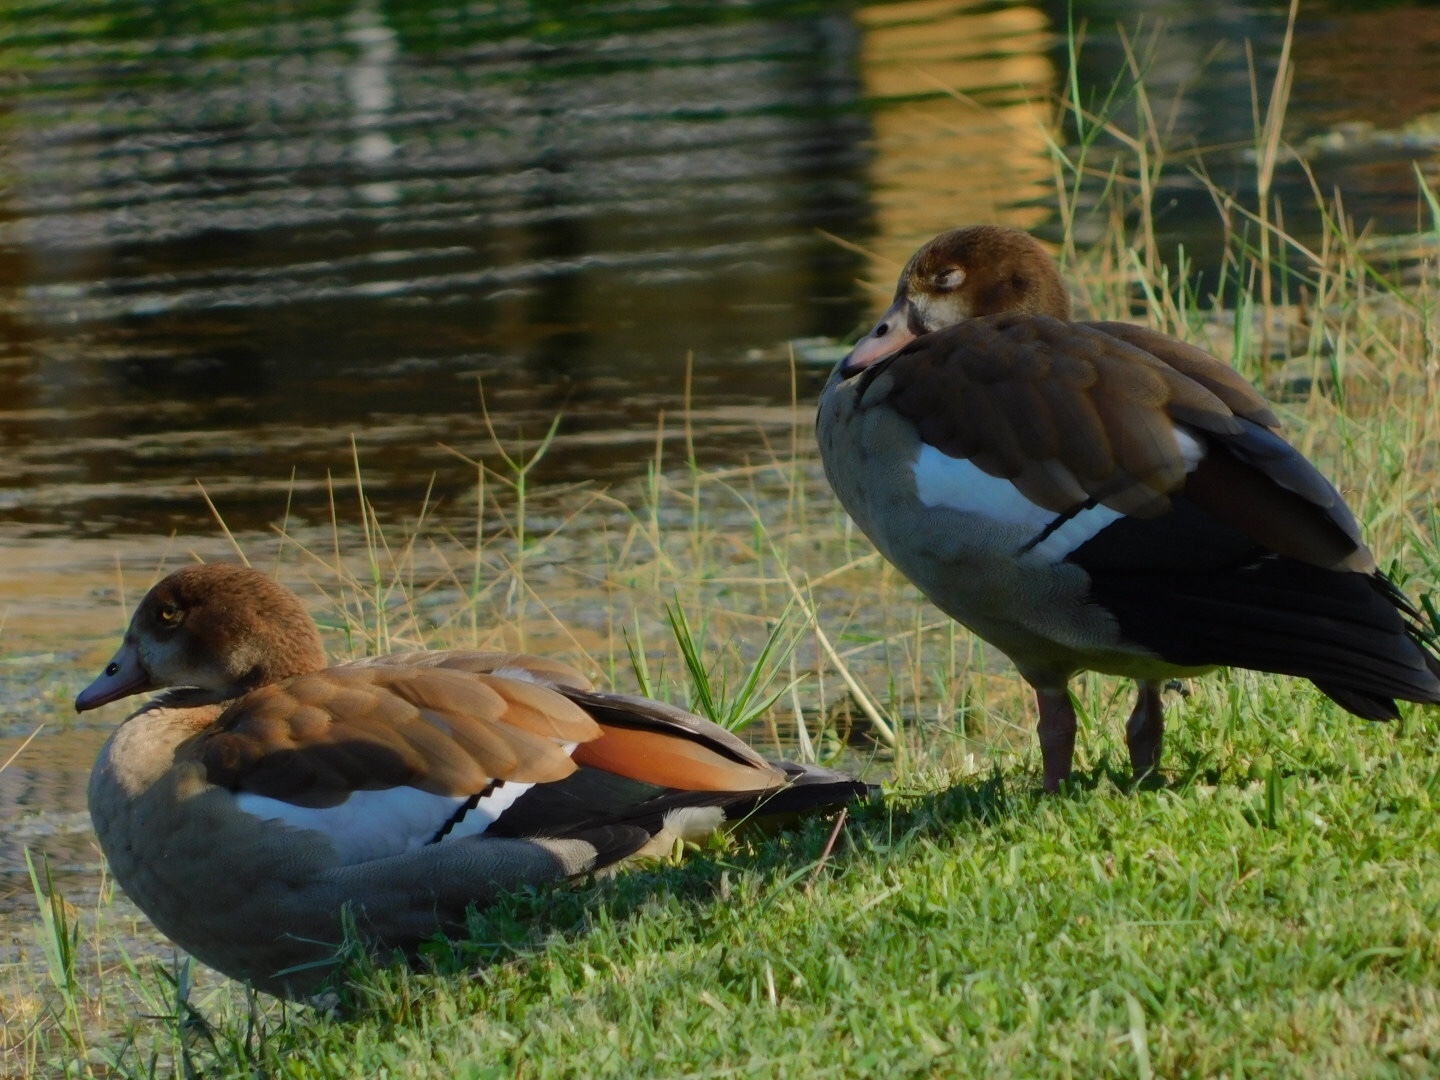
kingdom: Animalia
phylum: Chordata
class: Aves
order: Anseriformes
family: Anatidae
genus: Alopochen
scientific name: Alopochen aegyptiaca
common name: Egyptian goose
